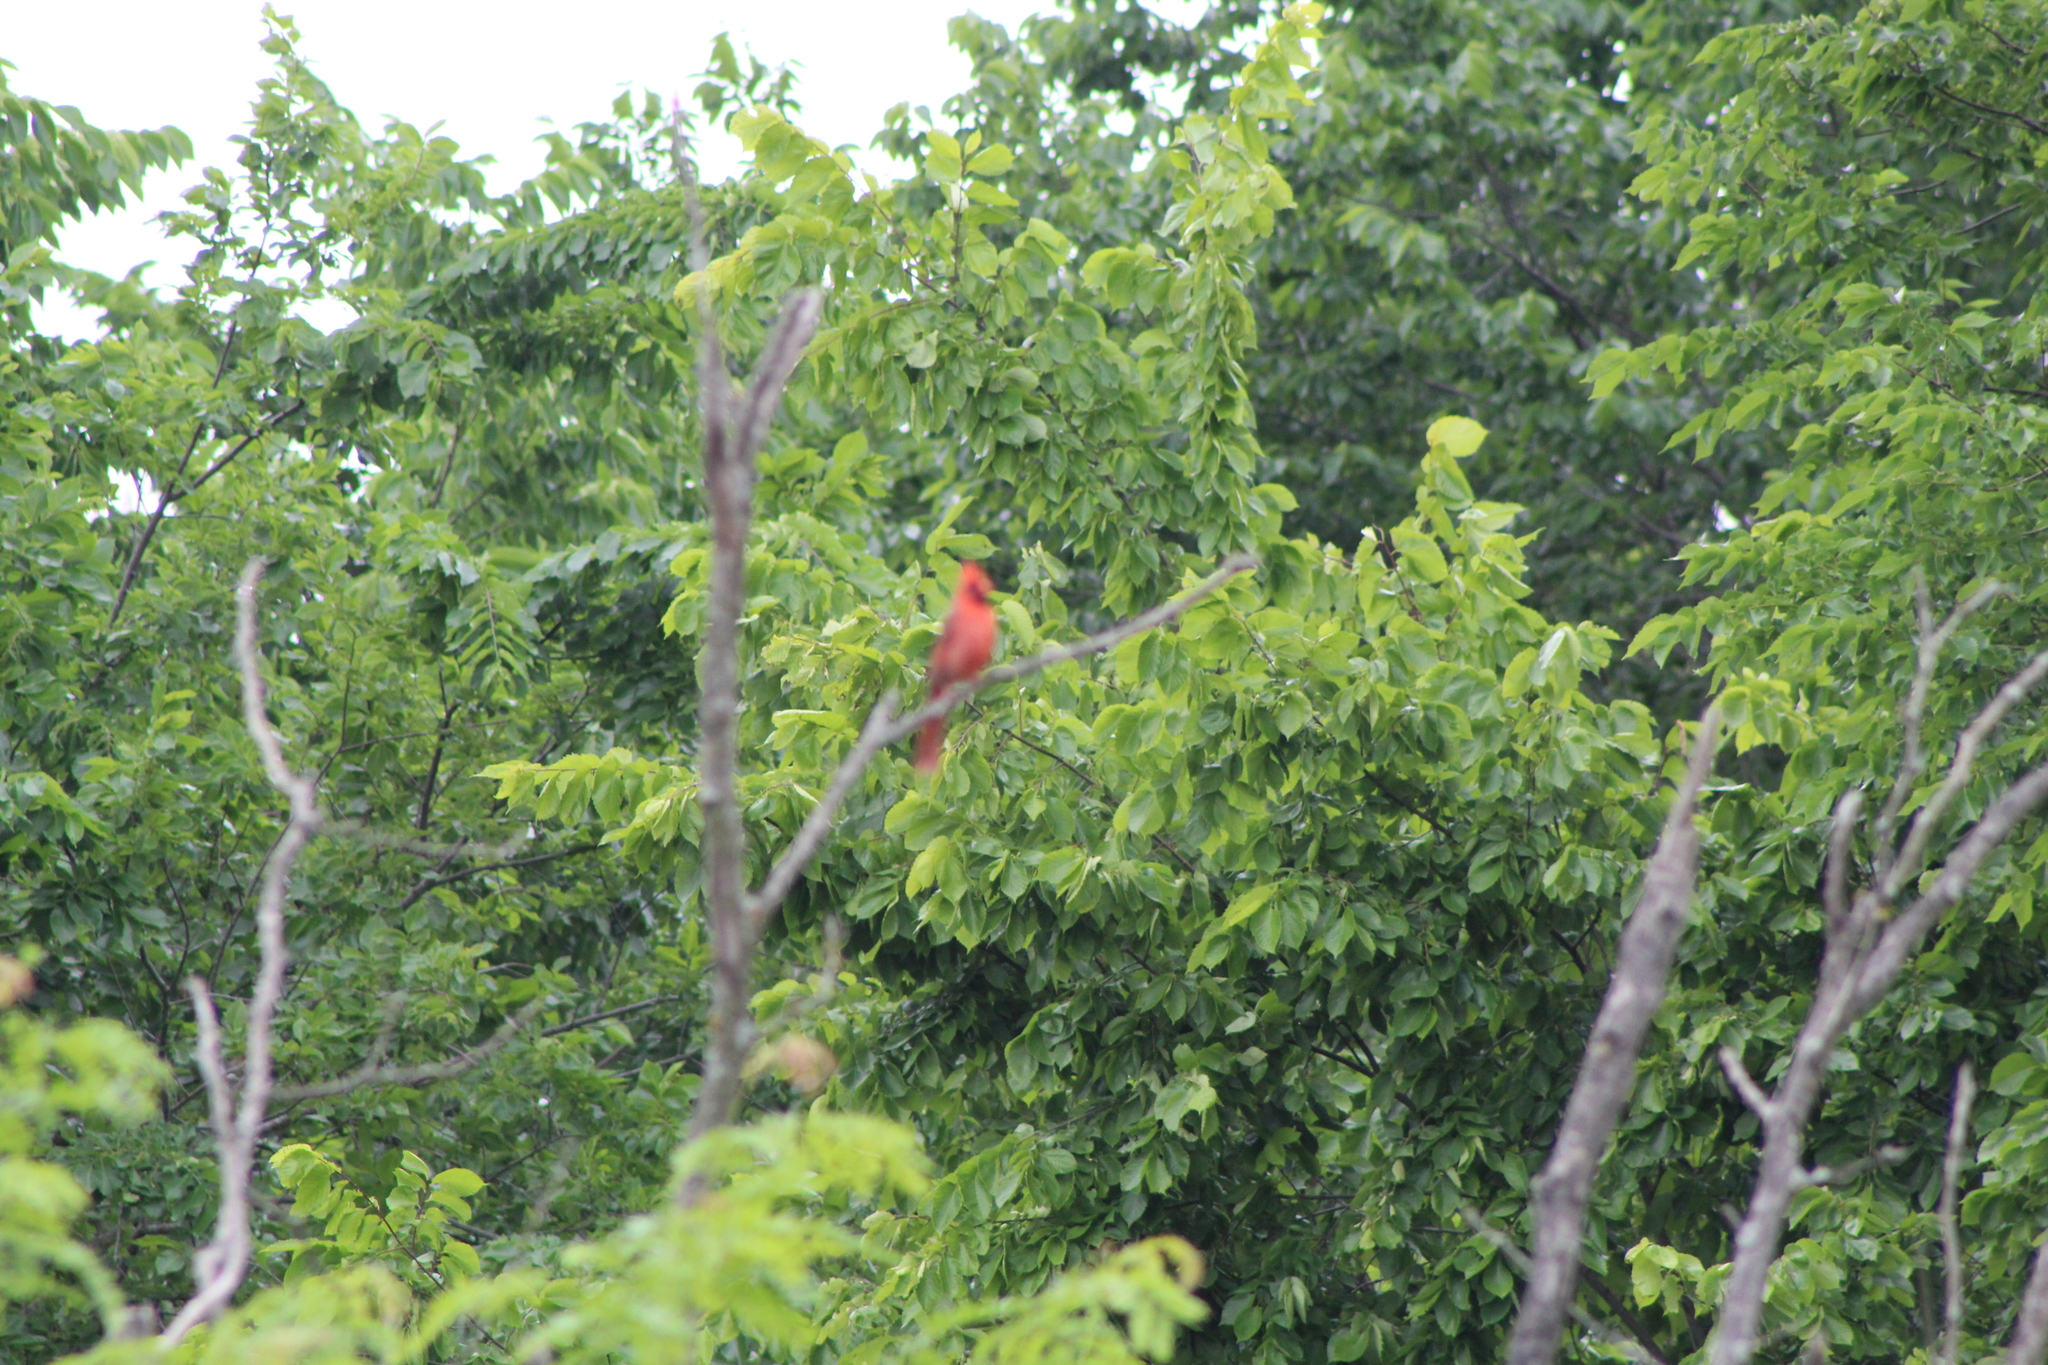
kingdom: Animalia
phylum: Chordata
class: Aves
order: Passeriformes
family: Cardinalidae
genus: Cardinalis
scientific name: Cardinalis cardinalis
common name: Northern cardinal
